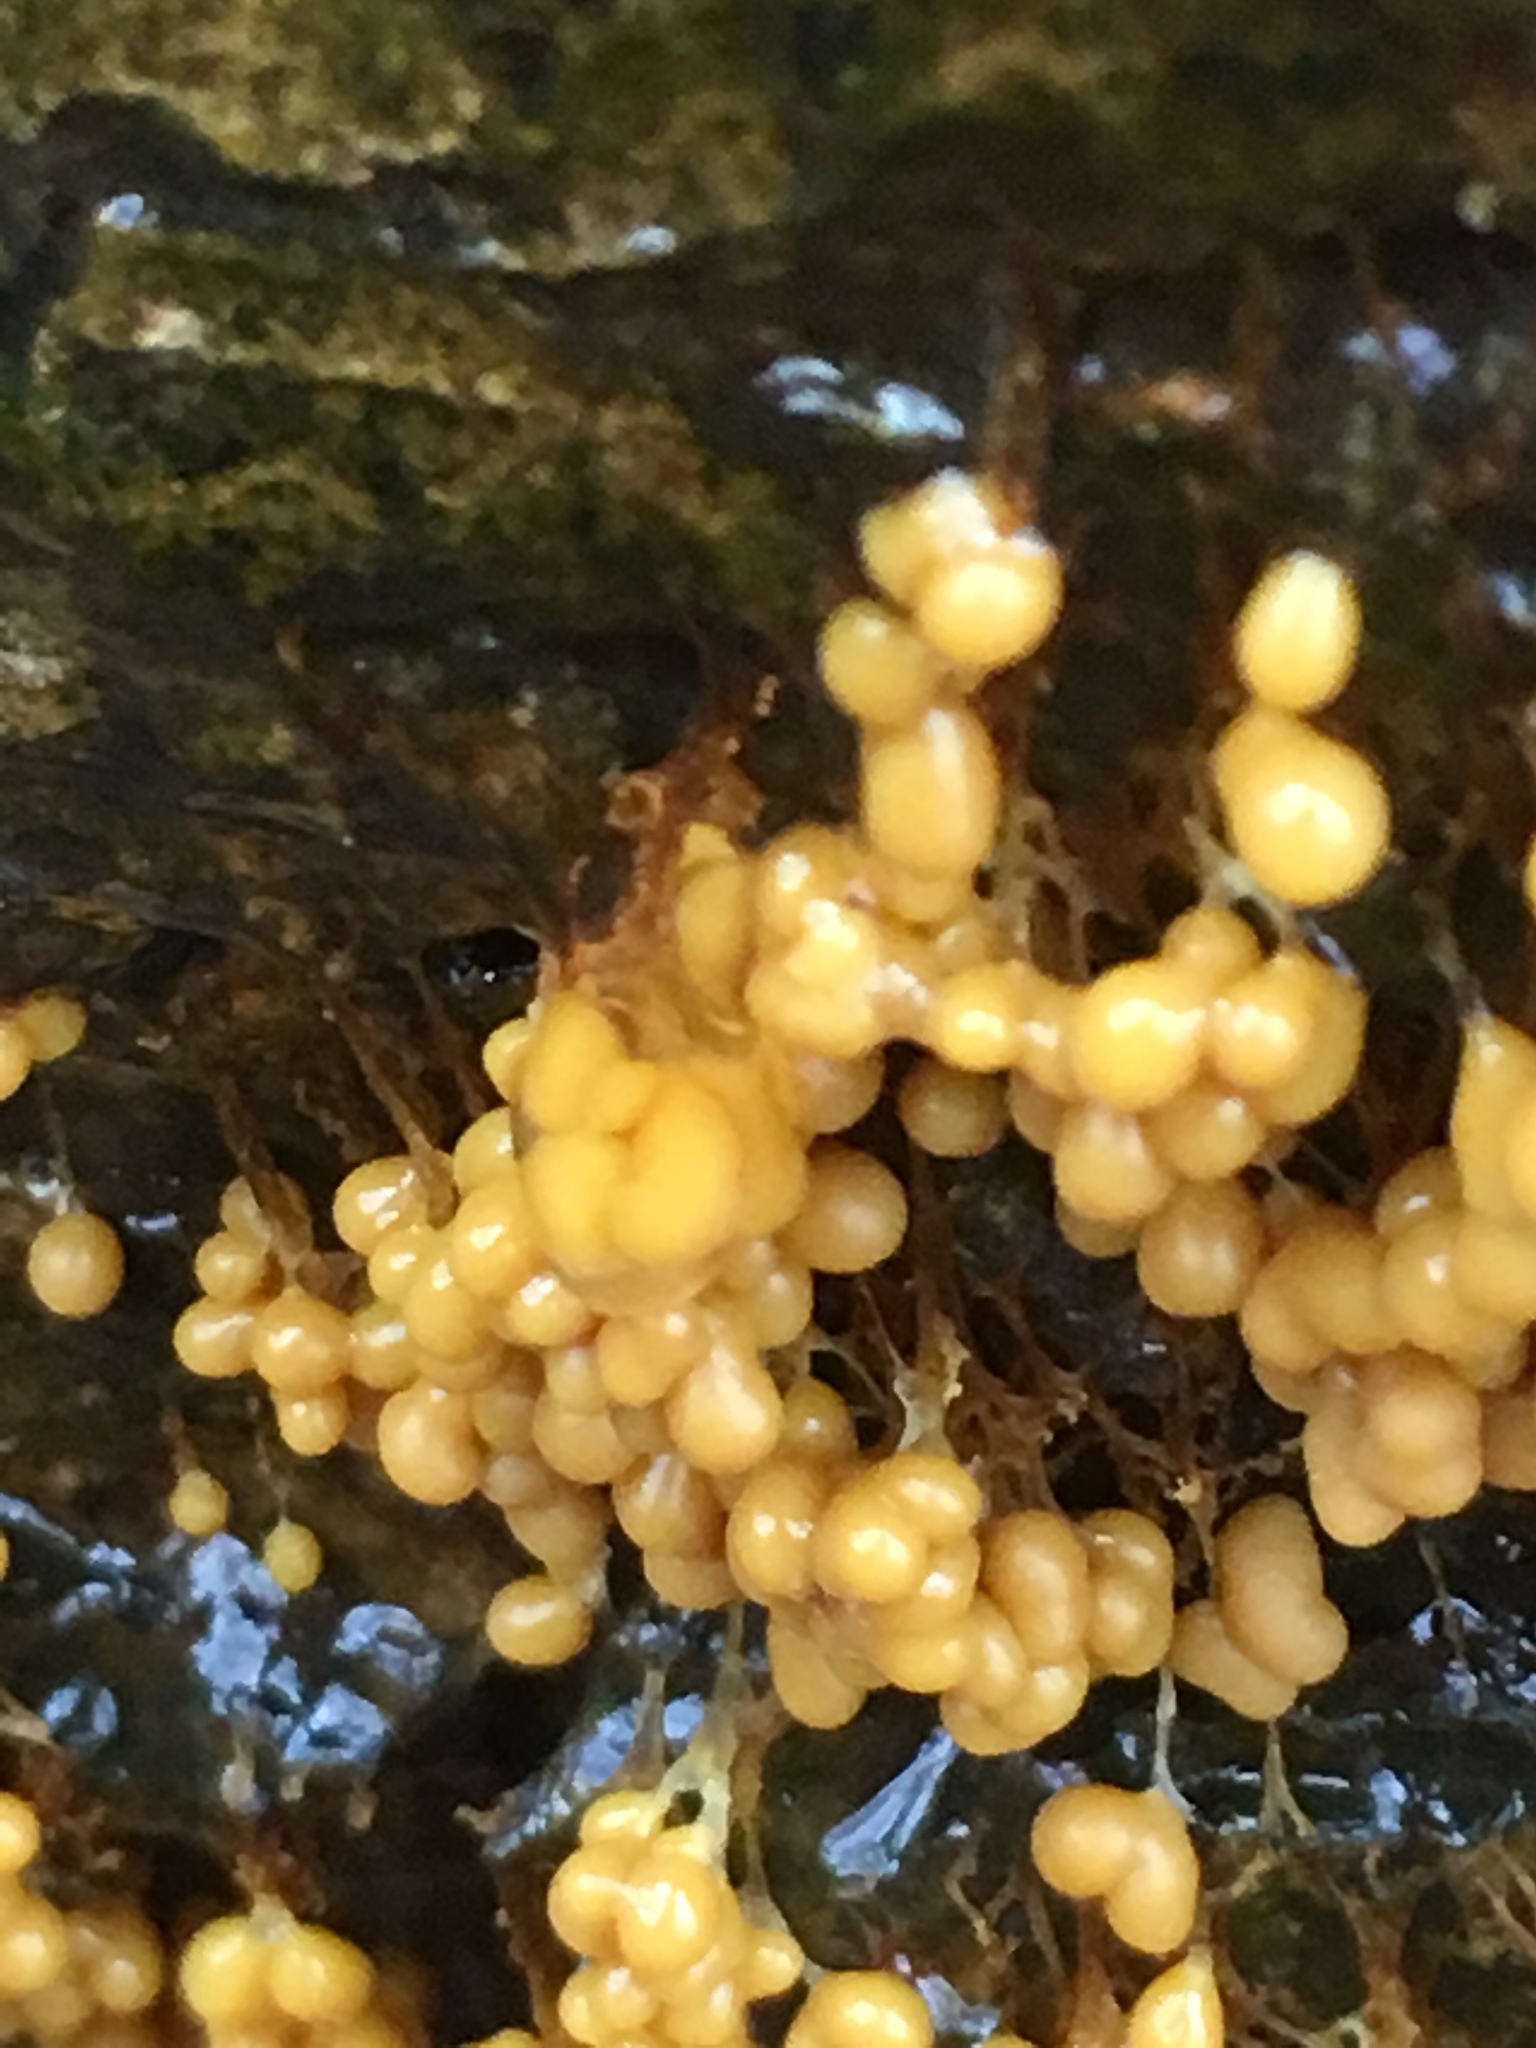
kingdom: Protozoa
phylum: Mycetozoa
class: Myxomycetes
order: Physarales
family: Physaraceae
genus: Badhamia
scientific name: Badhamia utricularis
